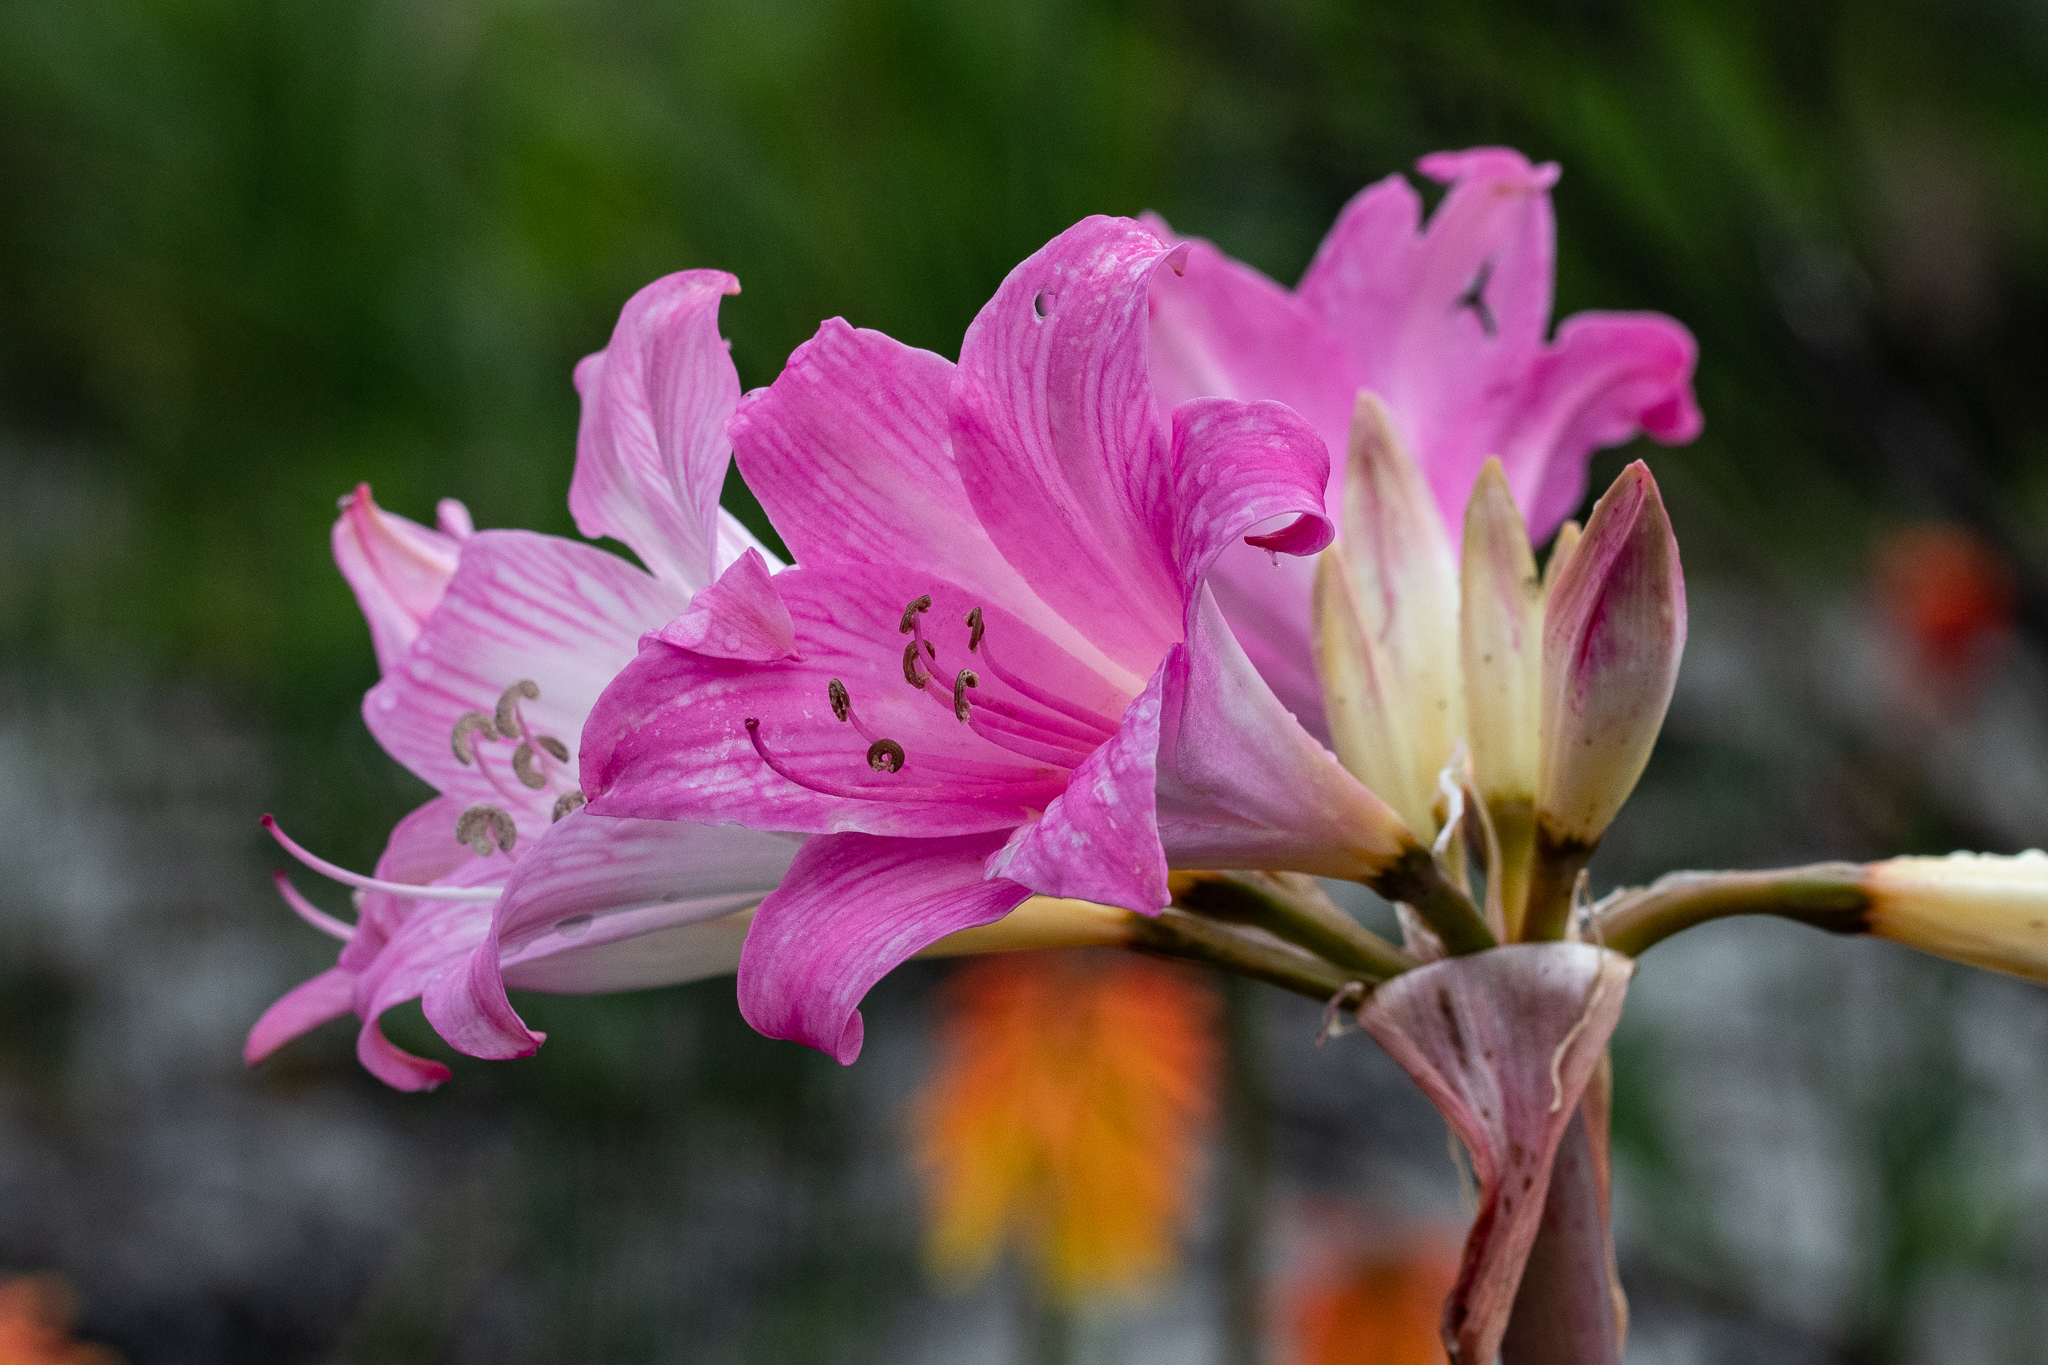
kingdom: Plantae
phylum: Tracheophyta
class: Liliopsida
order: Asparagales
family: Amaryllidaceae
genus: Amaryllis
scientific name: Amaryllis belladonna
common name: Jersey lily
